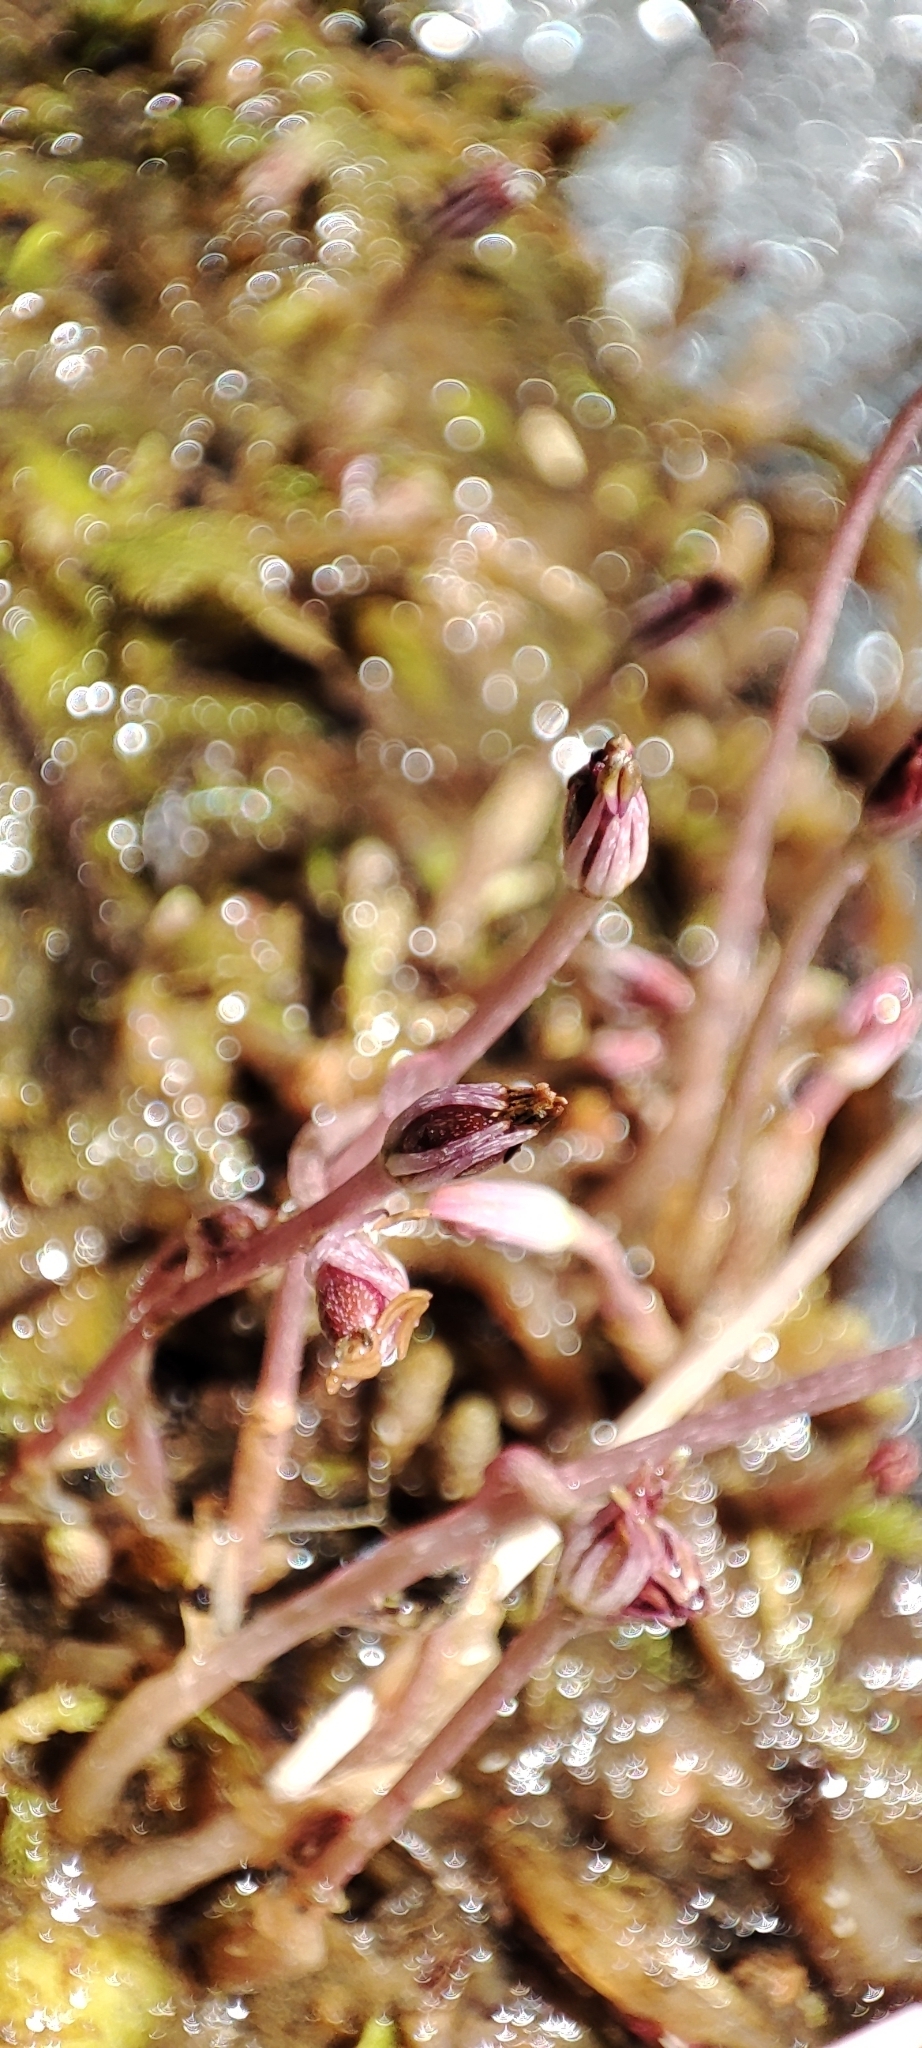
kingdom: Plantae
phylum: Tracheophyta
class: Magnoliopsida
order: Malpighiales
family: Podostemaceae
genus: Marathrum
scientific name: Marathrum foeniculaceum
